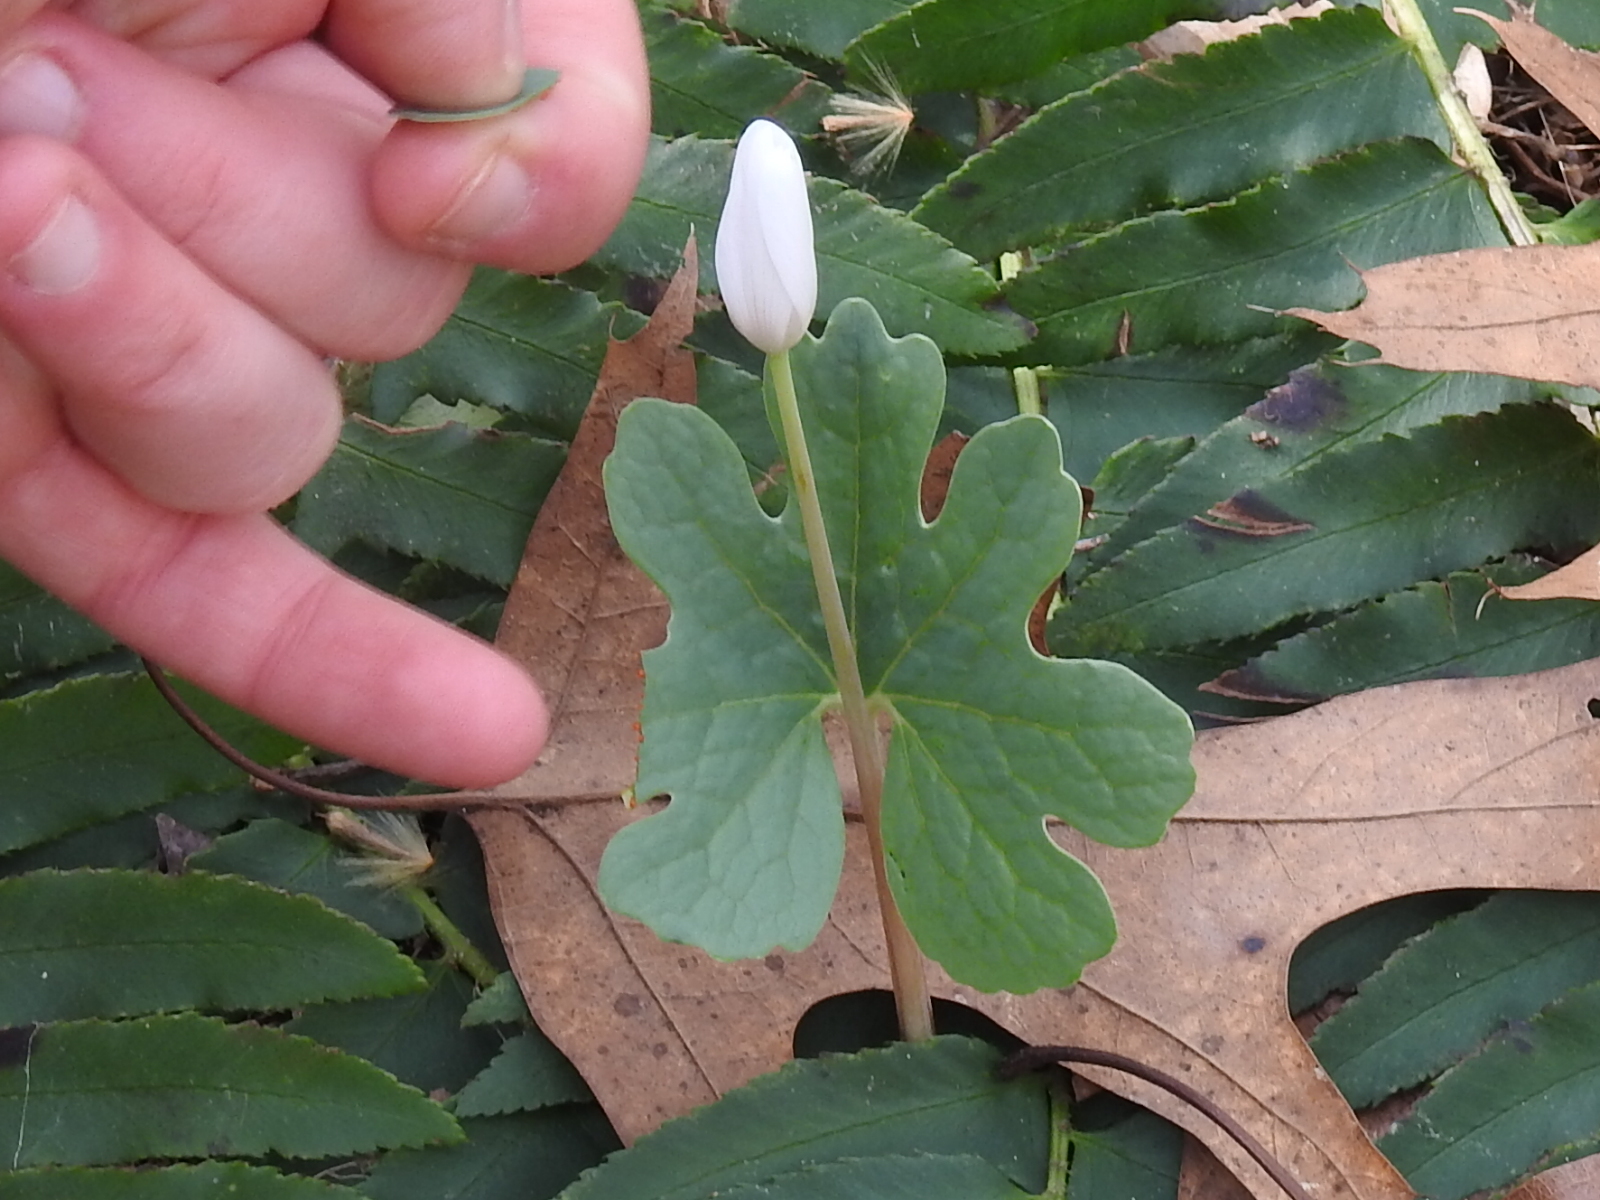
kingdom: Plantae
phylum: Tracheophyta
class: Magnoliopsida
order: Ranunculales
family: Papaveraceae
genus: Sanguinaria
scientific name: Sanguinaria canadensis
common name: Bloodroot
